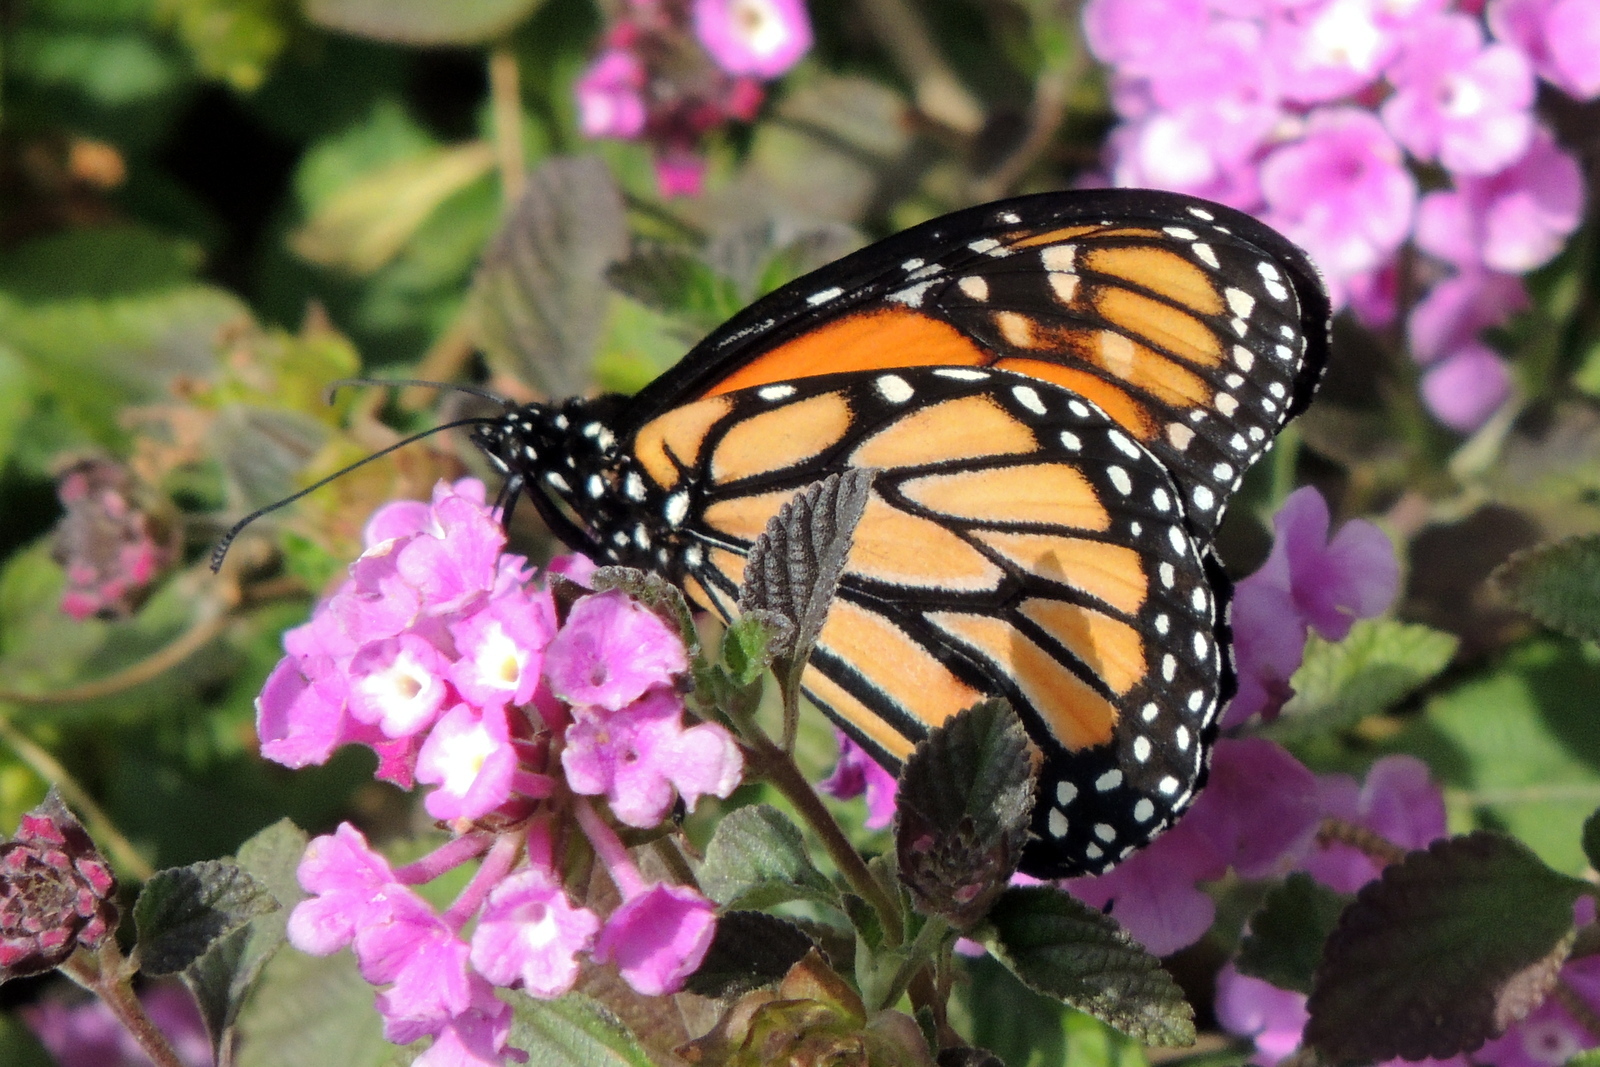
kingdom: Animalia
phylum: Arthropoda
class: Insecta
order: Lepidoptera
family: Nymphalidae
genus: Danaus
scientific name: Danaus plexippus
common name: Monarch
